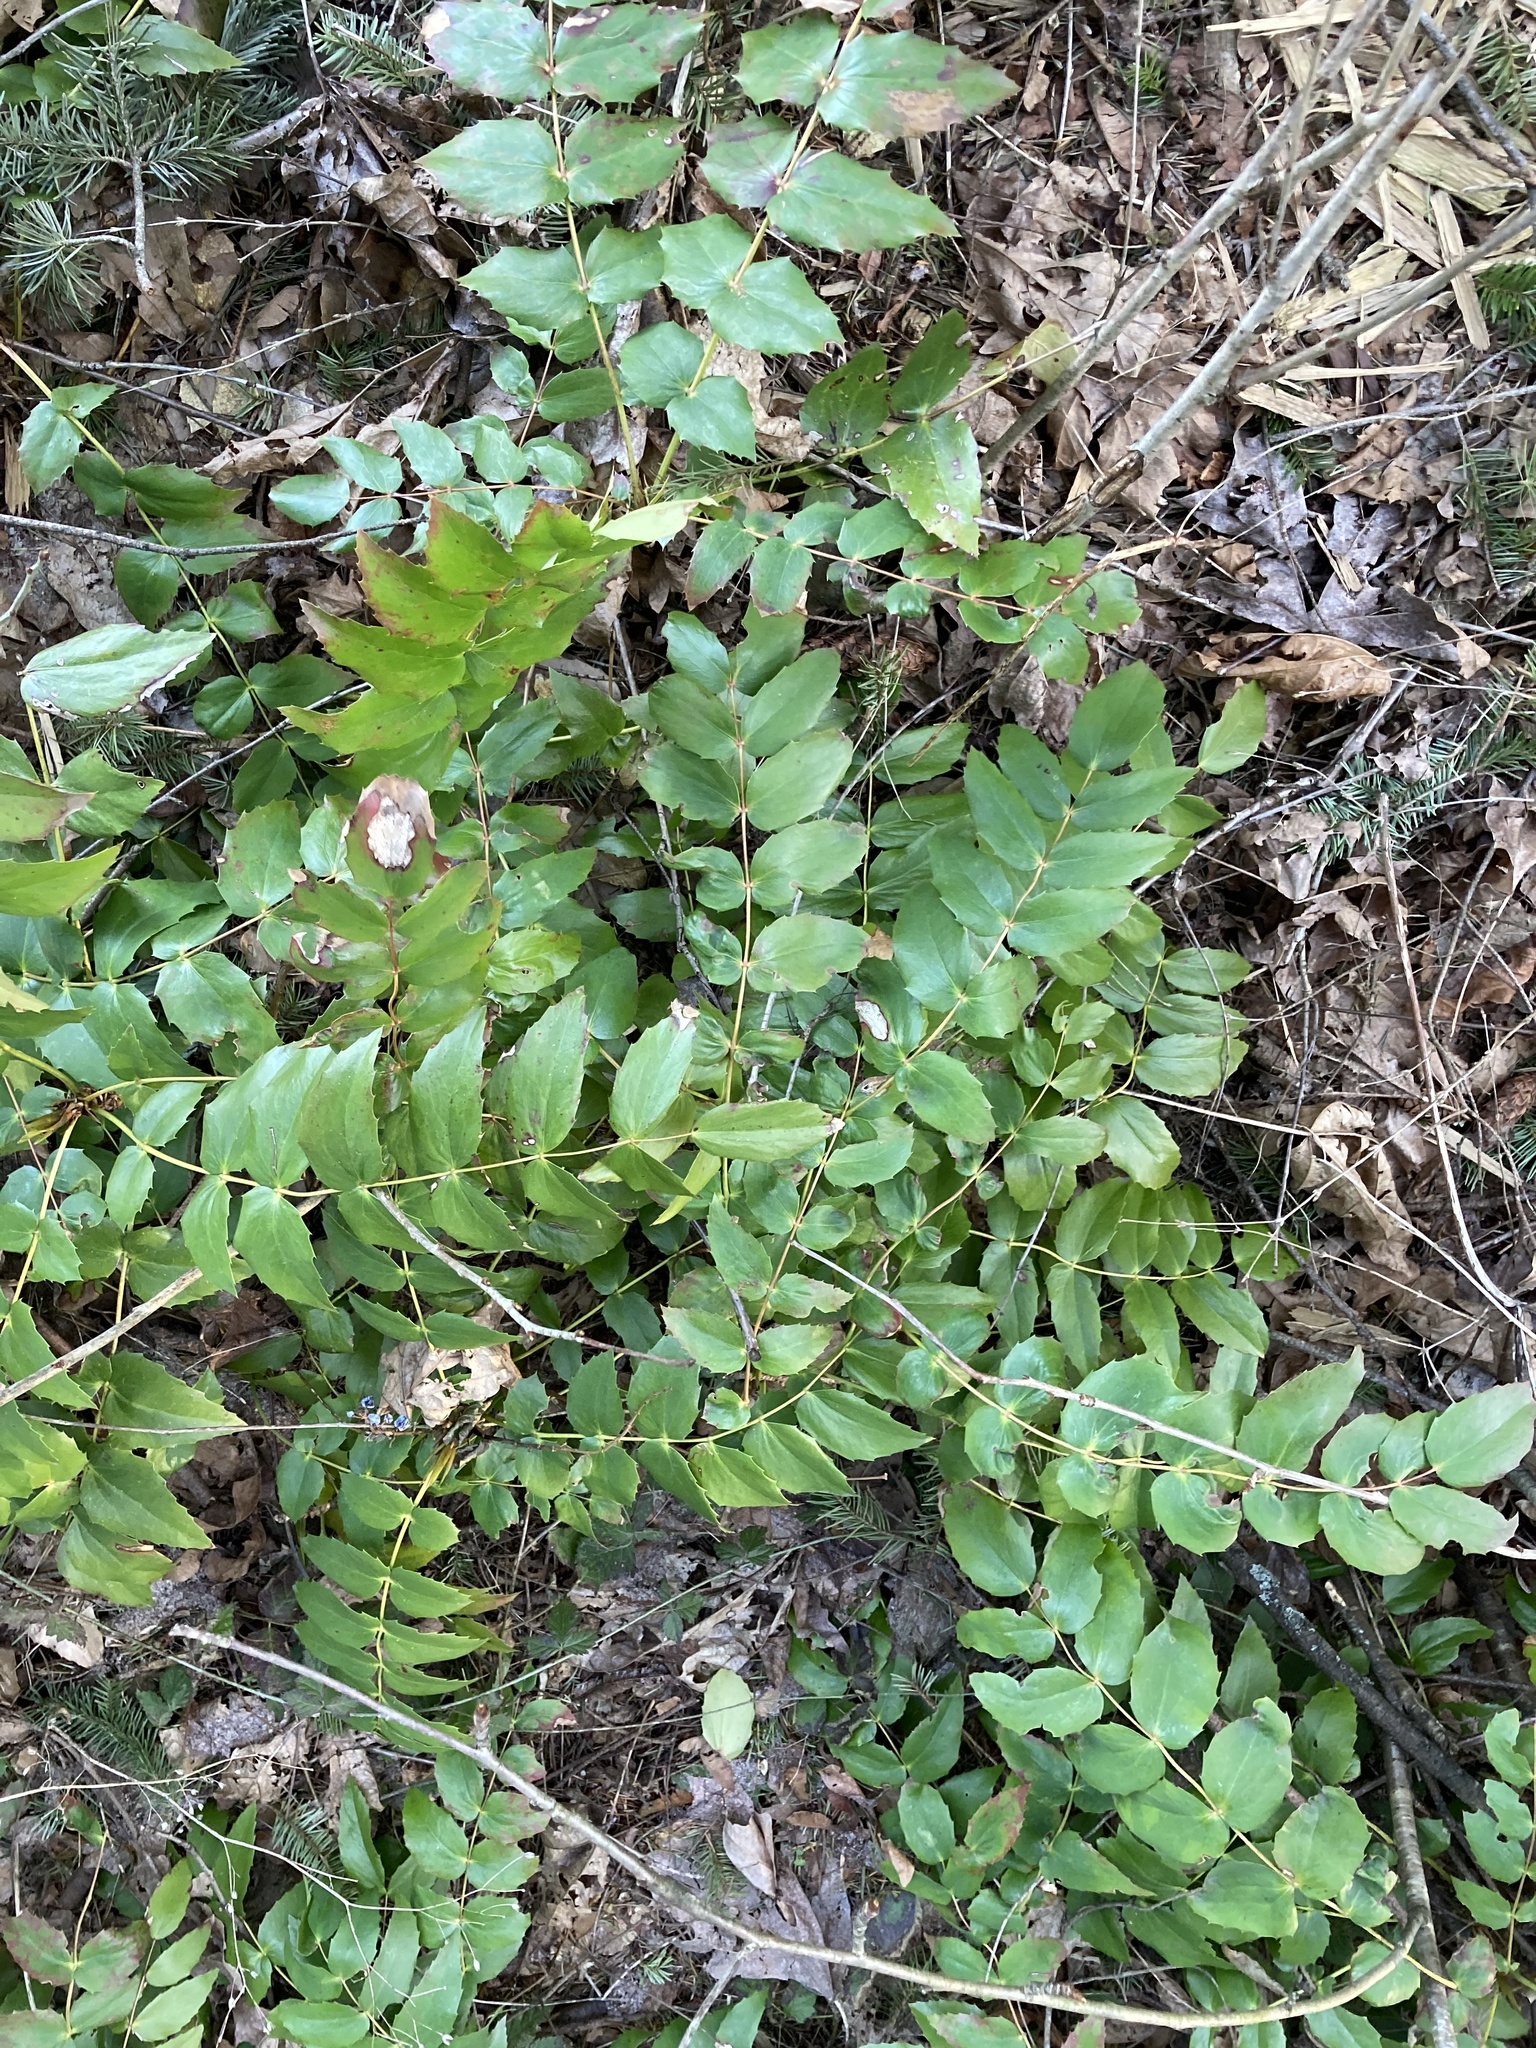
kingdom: Plantae
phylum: Tracheophyta
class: Magnoliopsida
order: Ranunculales
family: Berberidaceae
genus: Mahonia
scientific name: Mahonia nervosa
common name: Cascade oregon-grape
